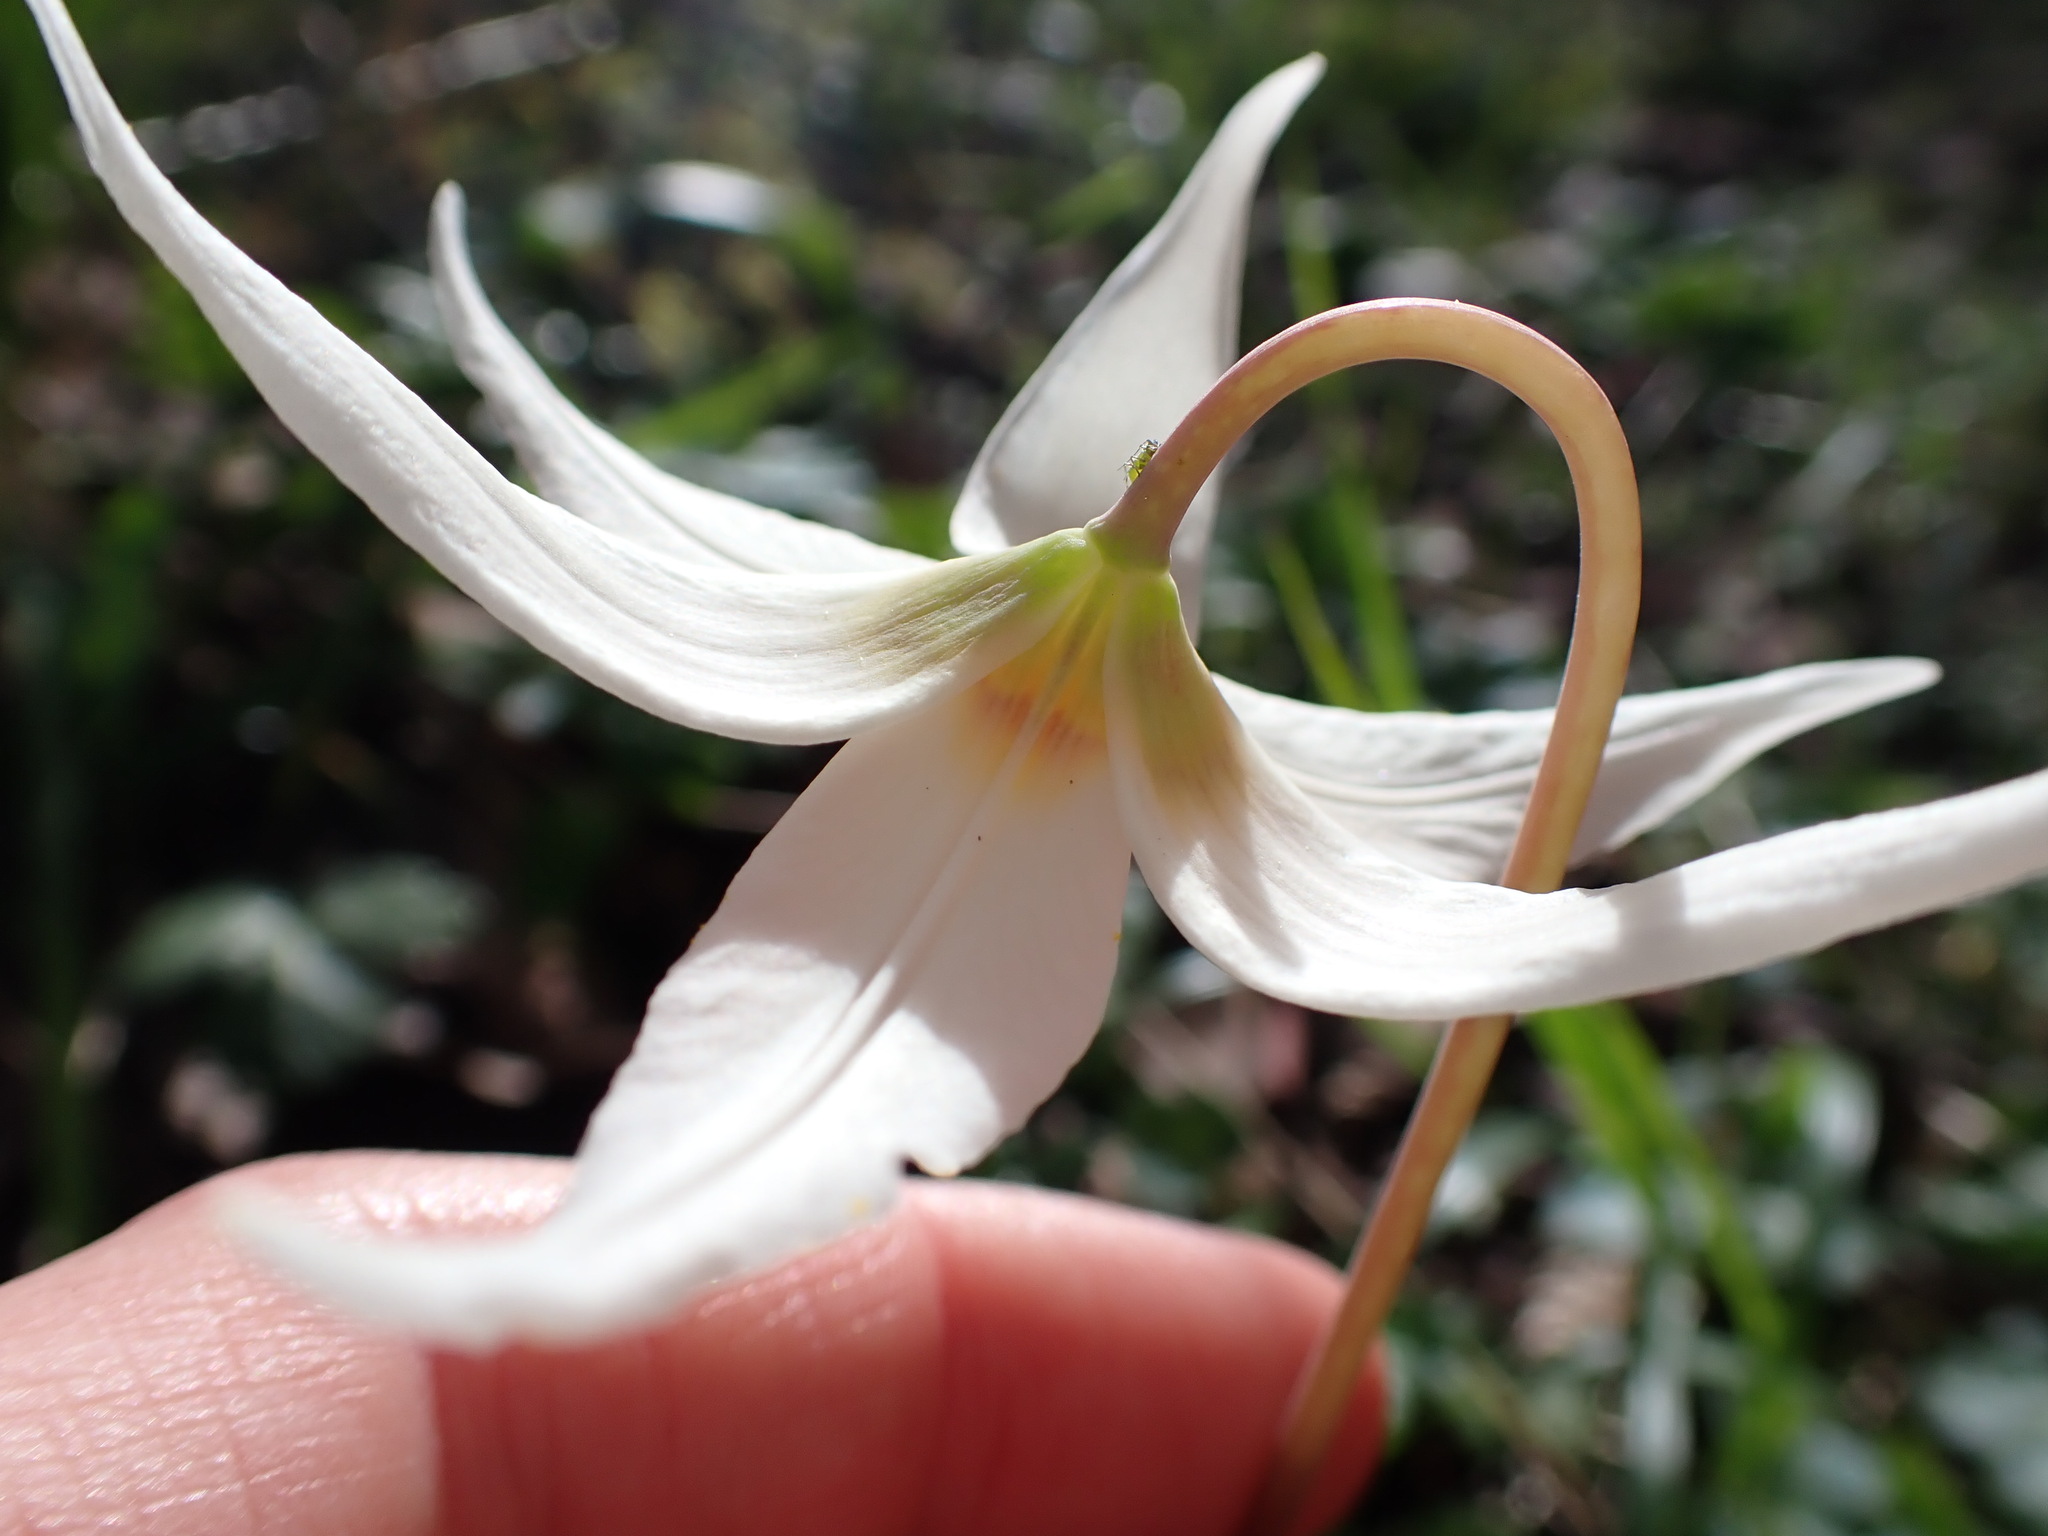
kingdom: Plantae
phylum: Tracheophyta
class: Liliopsida
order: Liliales
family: Liliaceae
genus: Erythronium
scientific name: Erythronium oregonum
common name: Giant adder's-tongue
